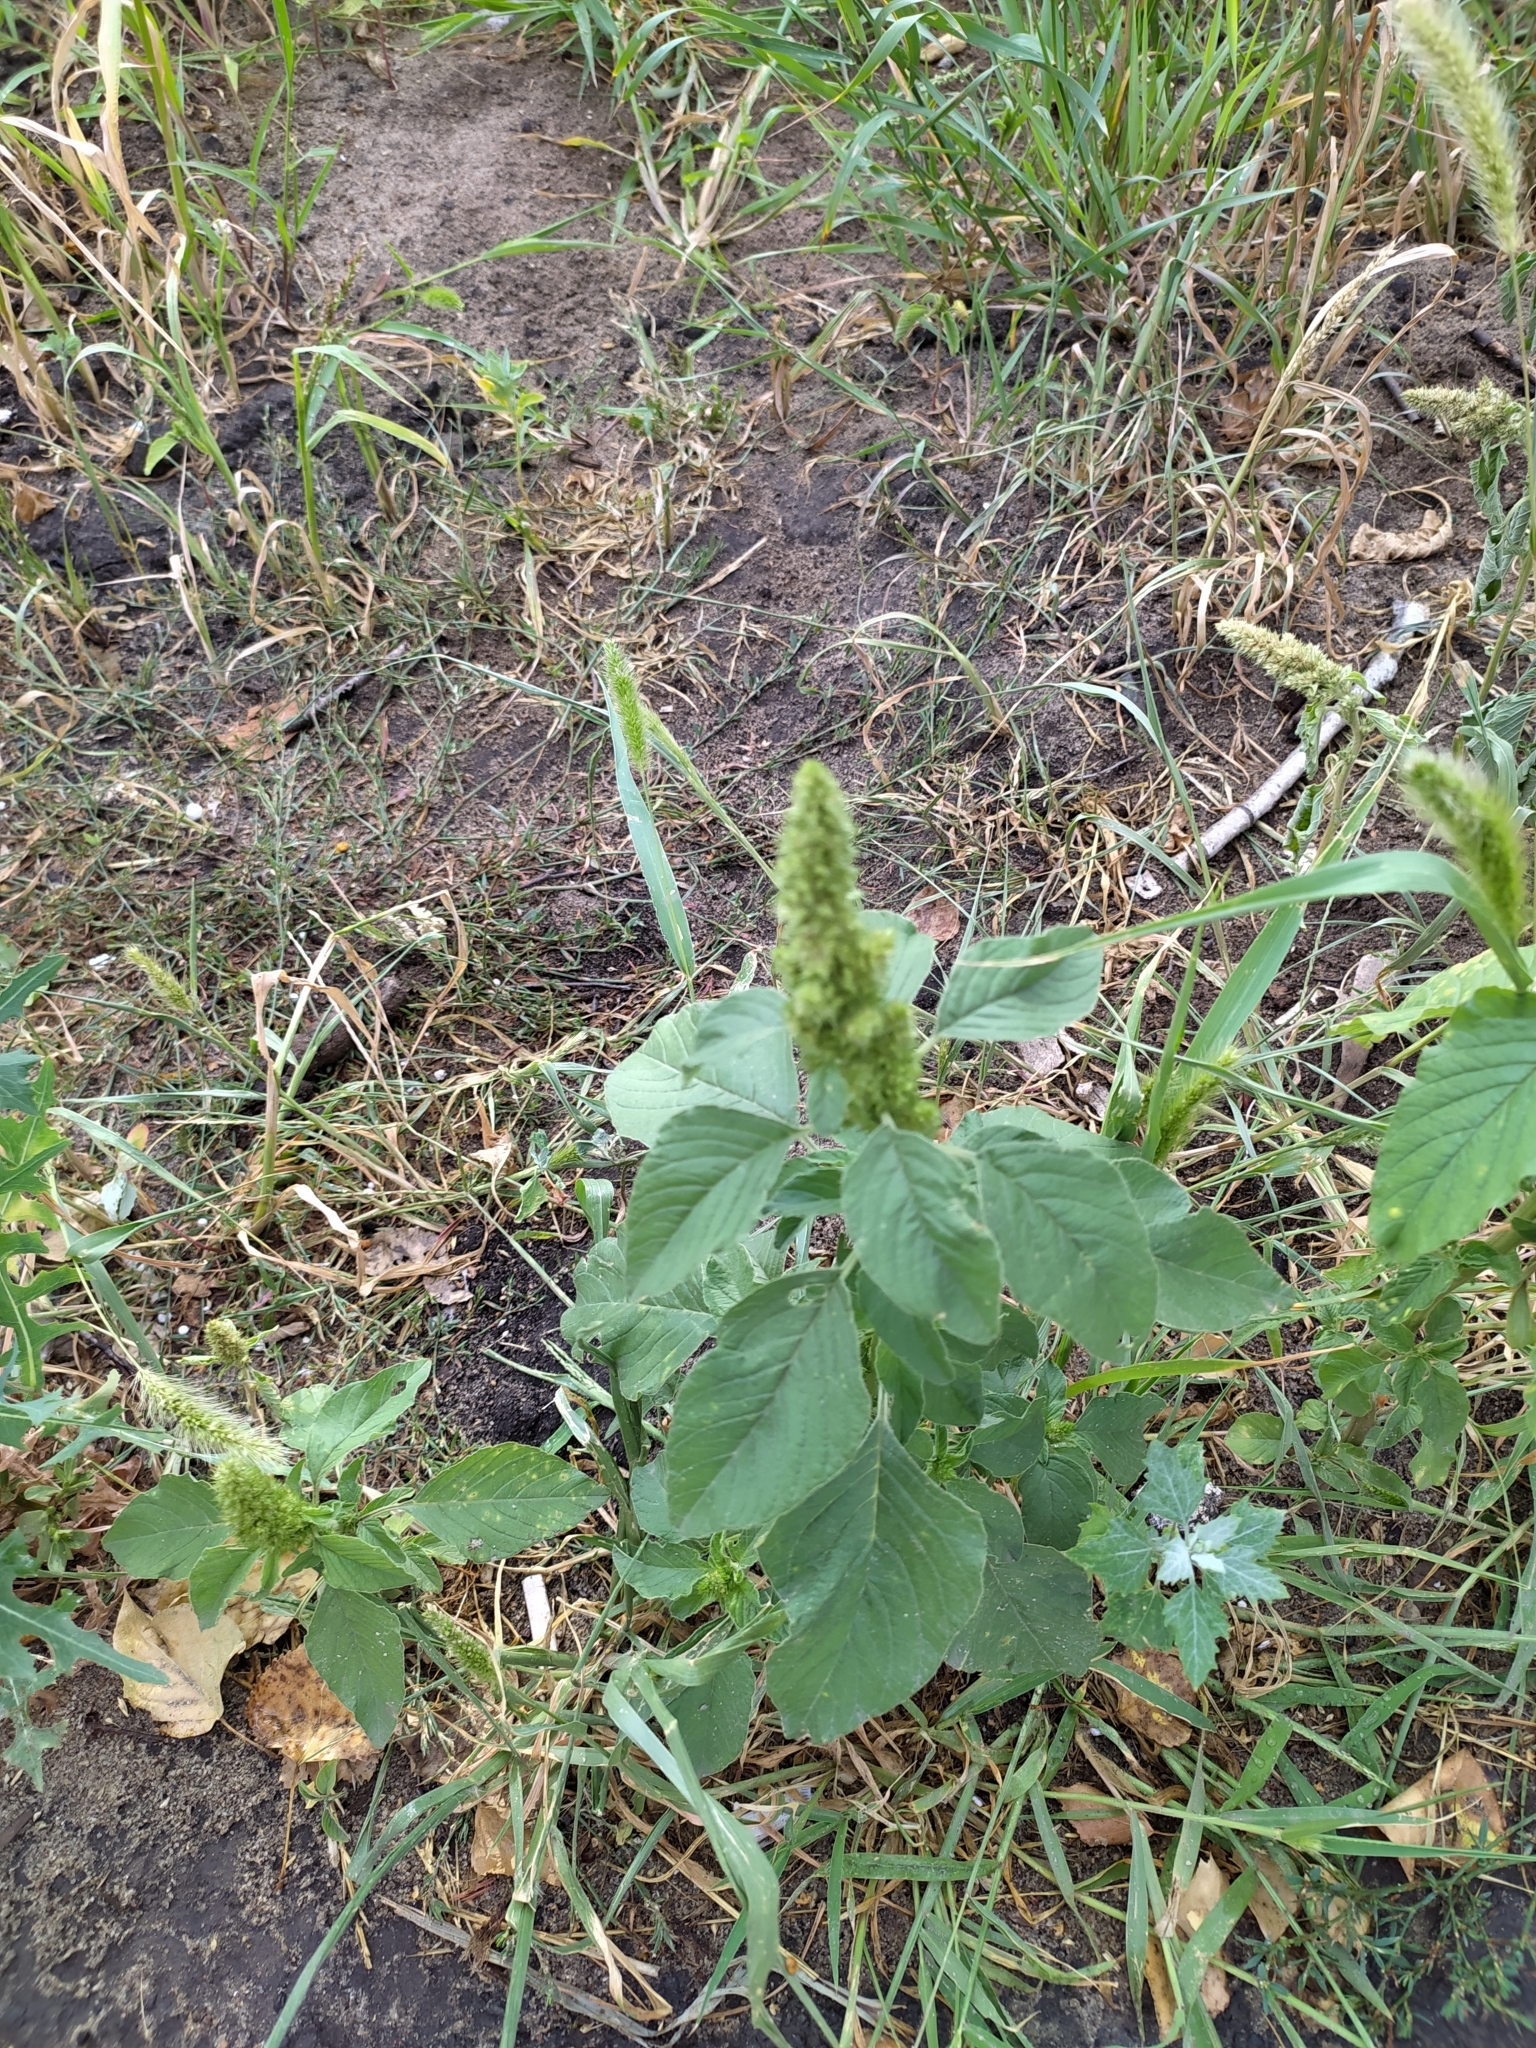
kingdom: Plantae
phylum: Tracheophyta
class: Magnoliopsida
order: Caryophyllales
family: Amaranthaceae
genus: Amaranthus
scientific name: Amaranthus retroflexus
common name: Redroot amaranth
